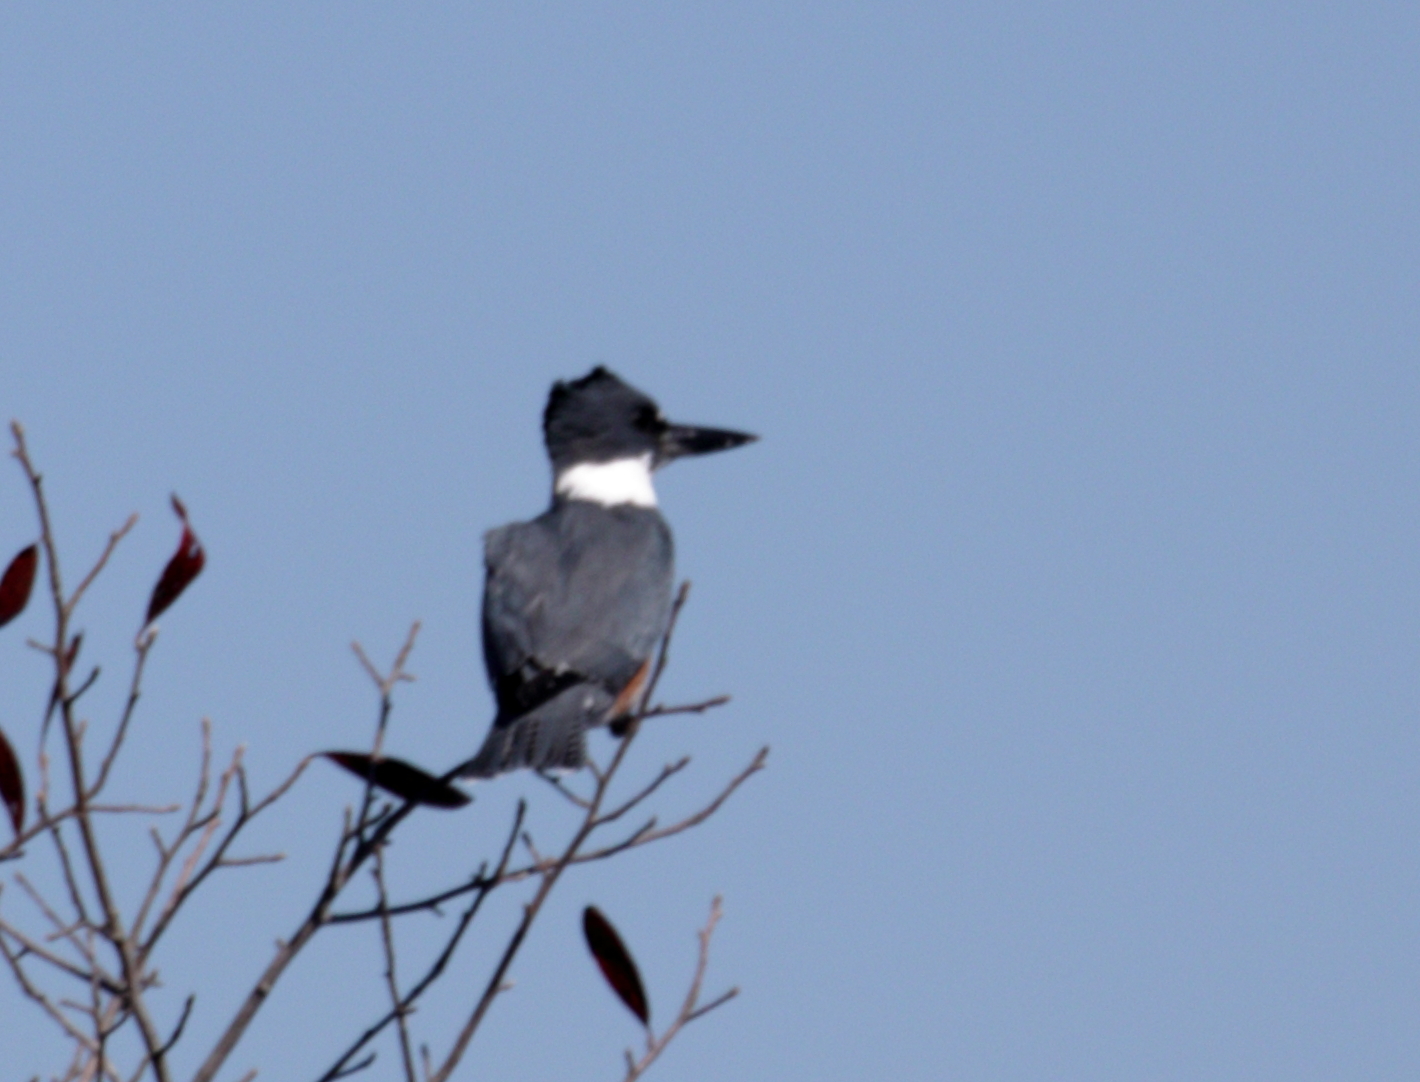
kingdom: Animalia
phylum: Chordata
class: Aves
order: Coraciiformes
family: Alcedinidae
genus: Megaceryle
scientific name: Megaceryle alcyon
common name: Belted kingfisher
